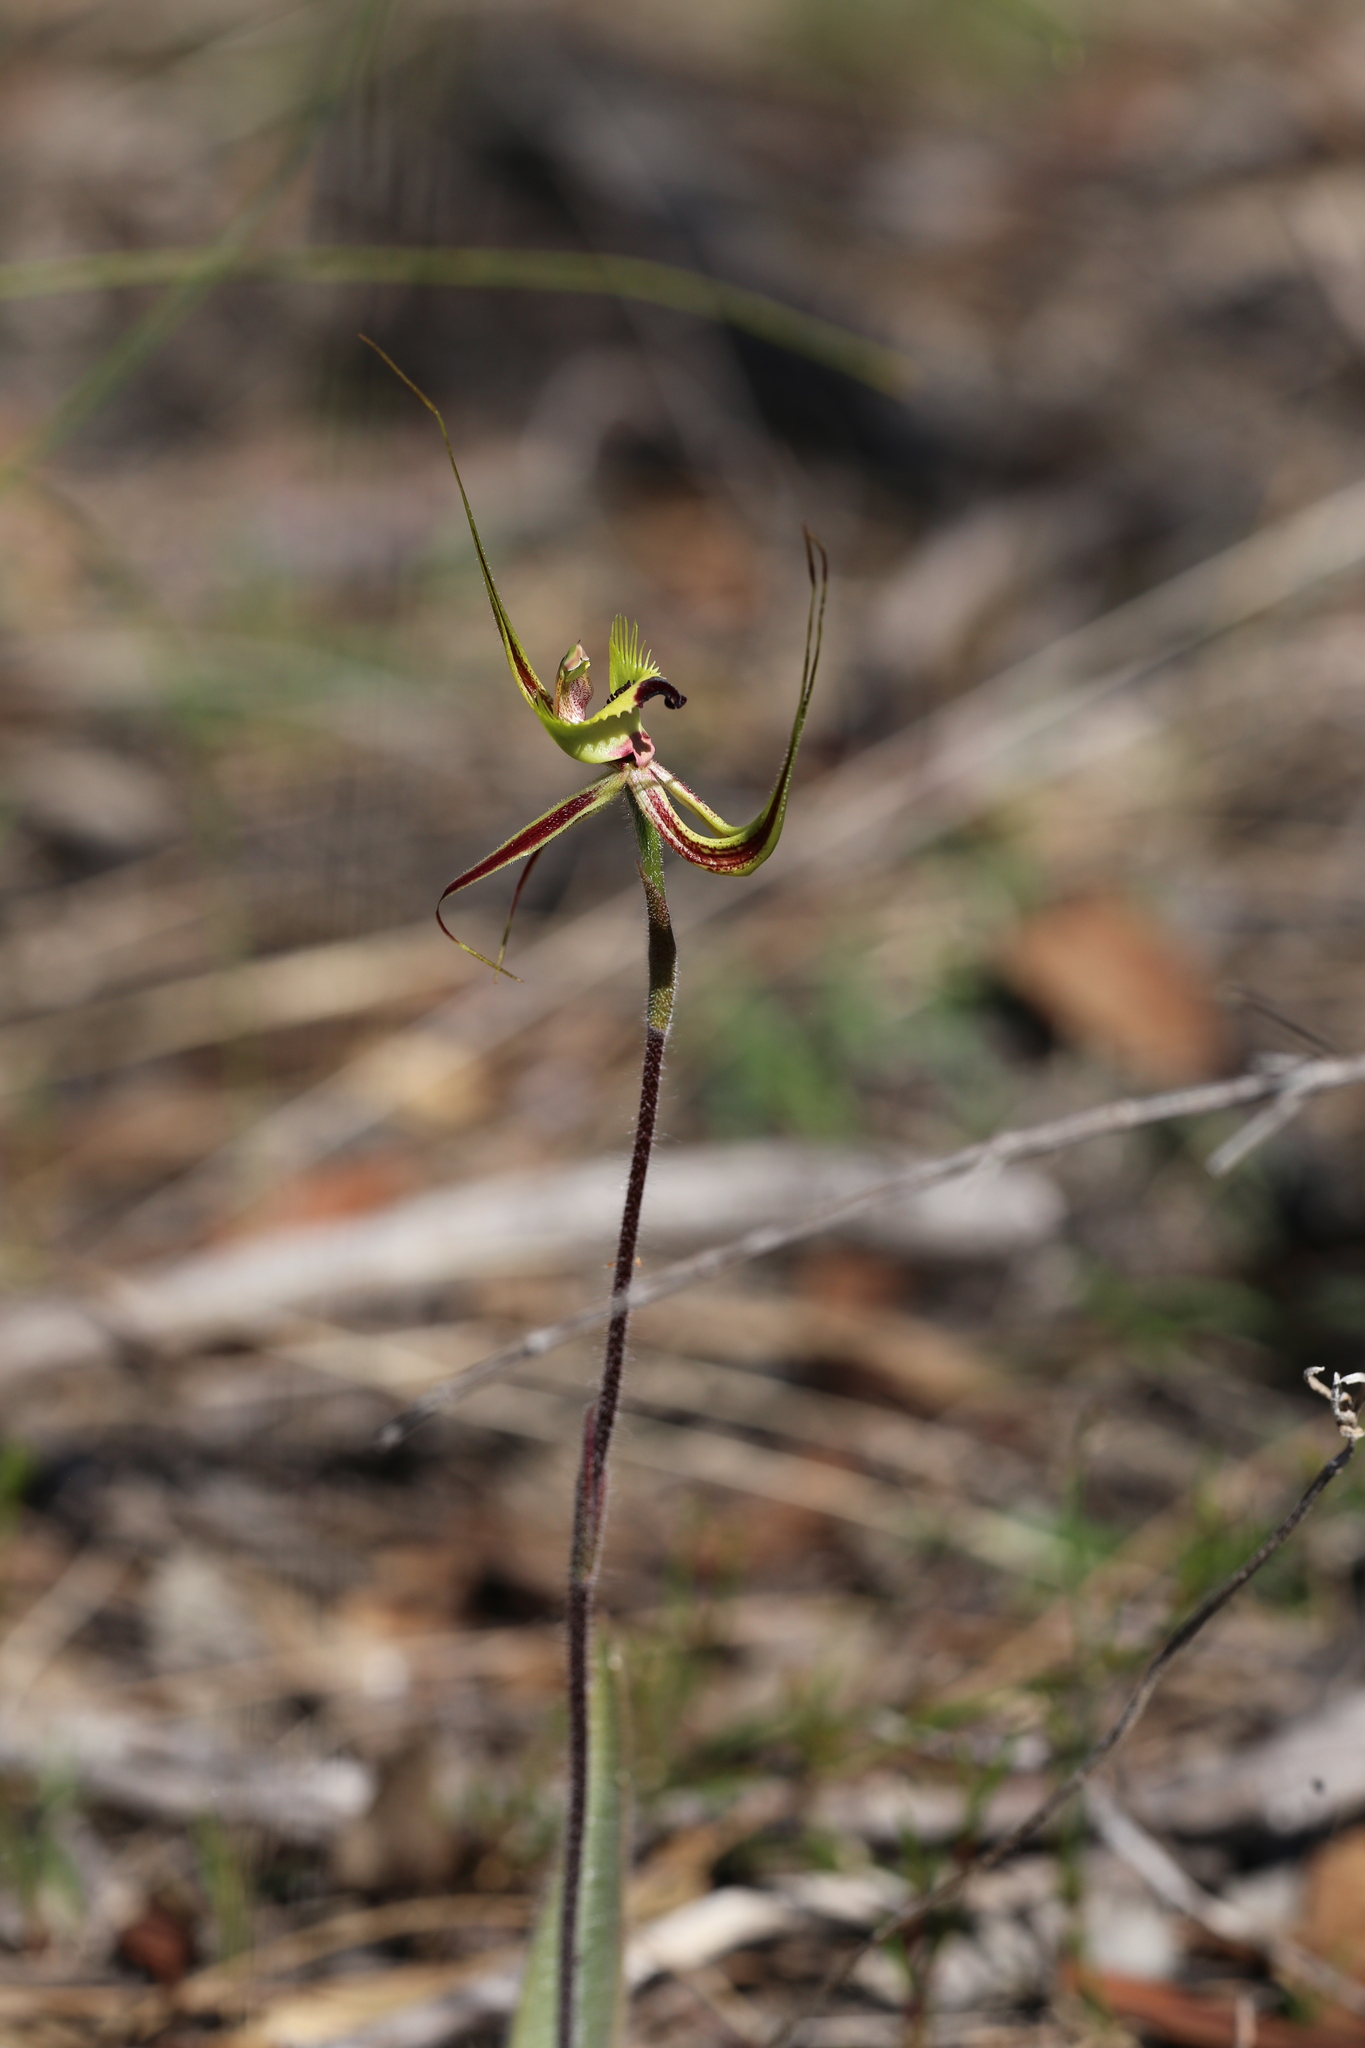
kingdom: Plantae
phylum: Tracheophyta
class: Liliopsida
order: Asparagales
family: Orchidaceae
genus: Caladenia
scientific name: Caladenia attingens
